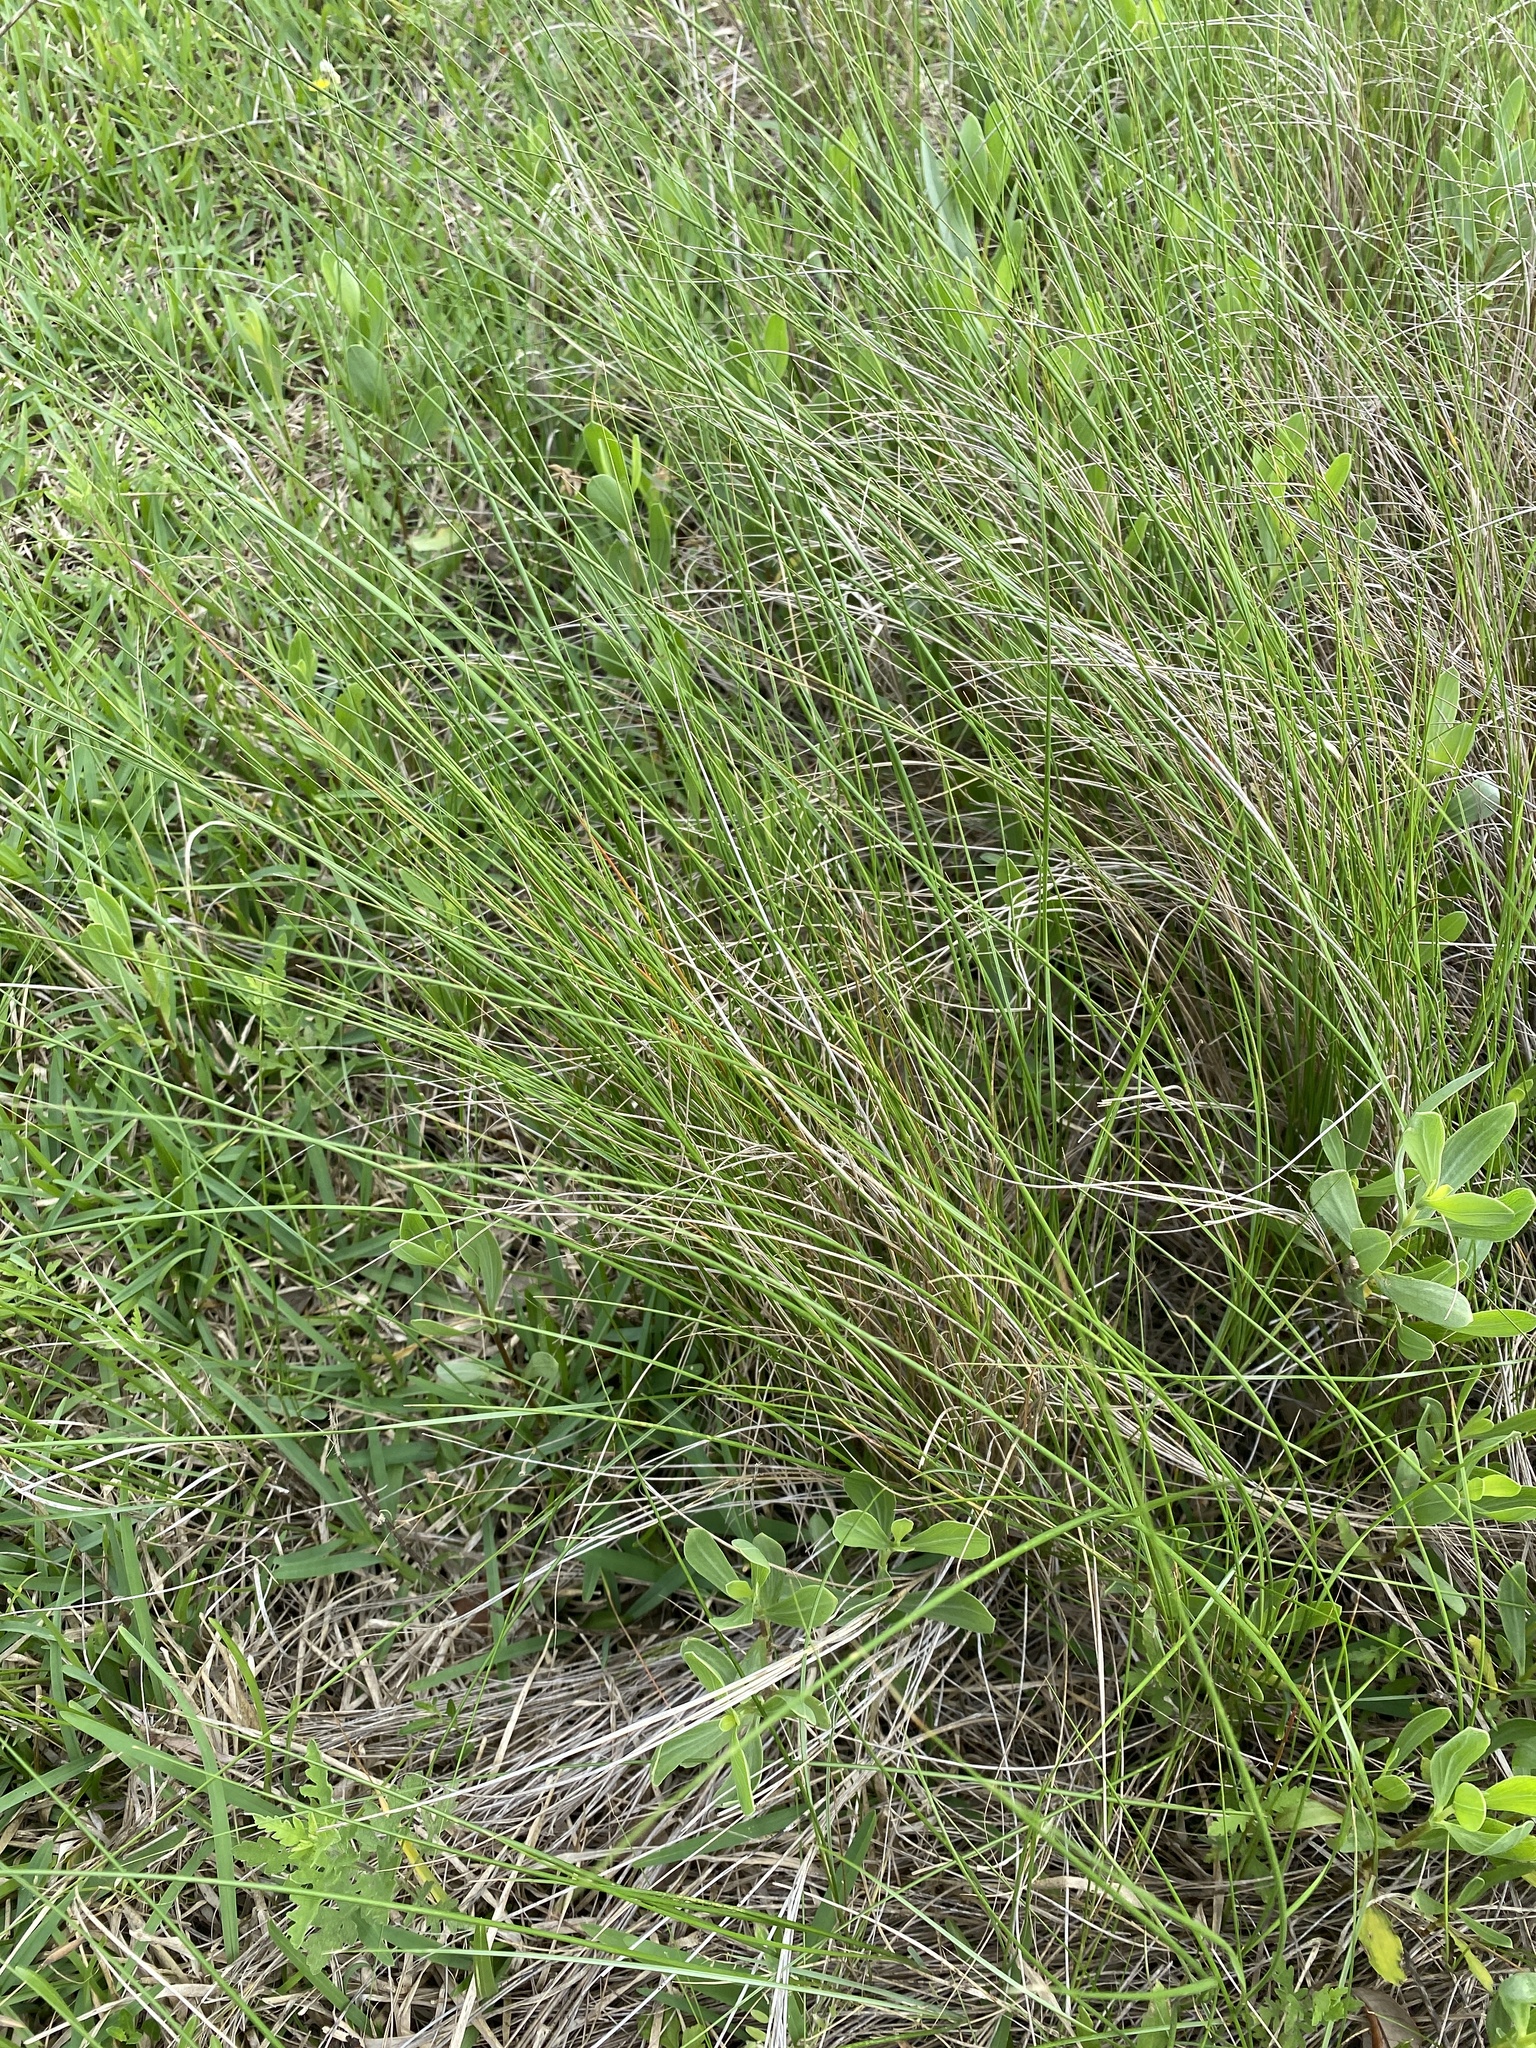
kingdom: Plantae
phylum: Tracheophyta
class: Liliopsida
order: Poales
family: Poaceae
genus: Sporobolus
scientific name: Sporobolus pumilus
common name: Highwater grass
